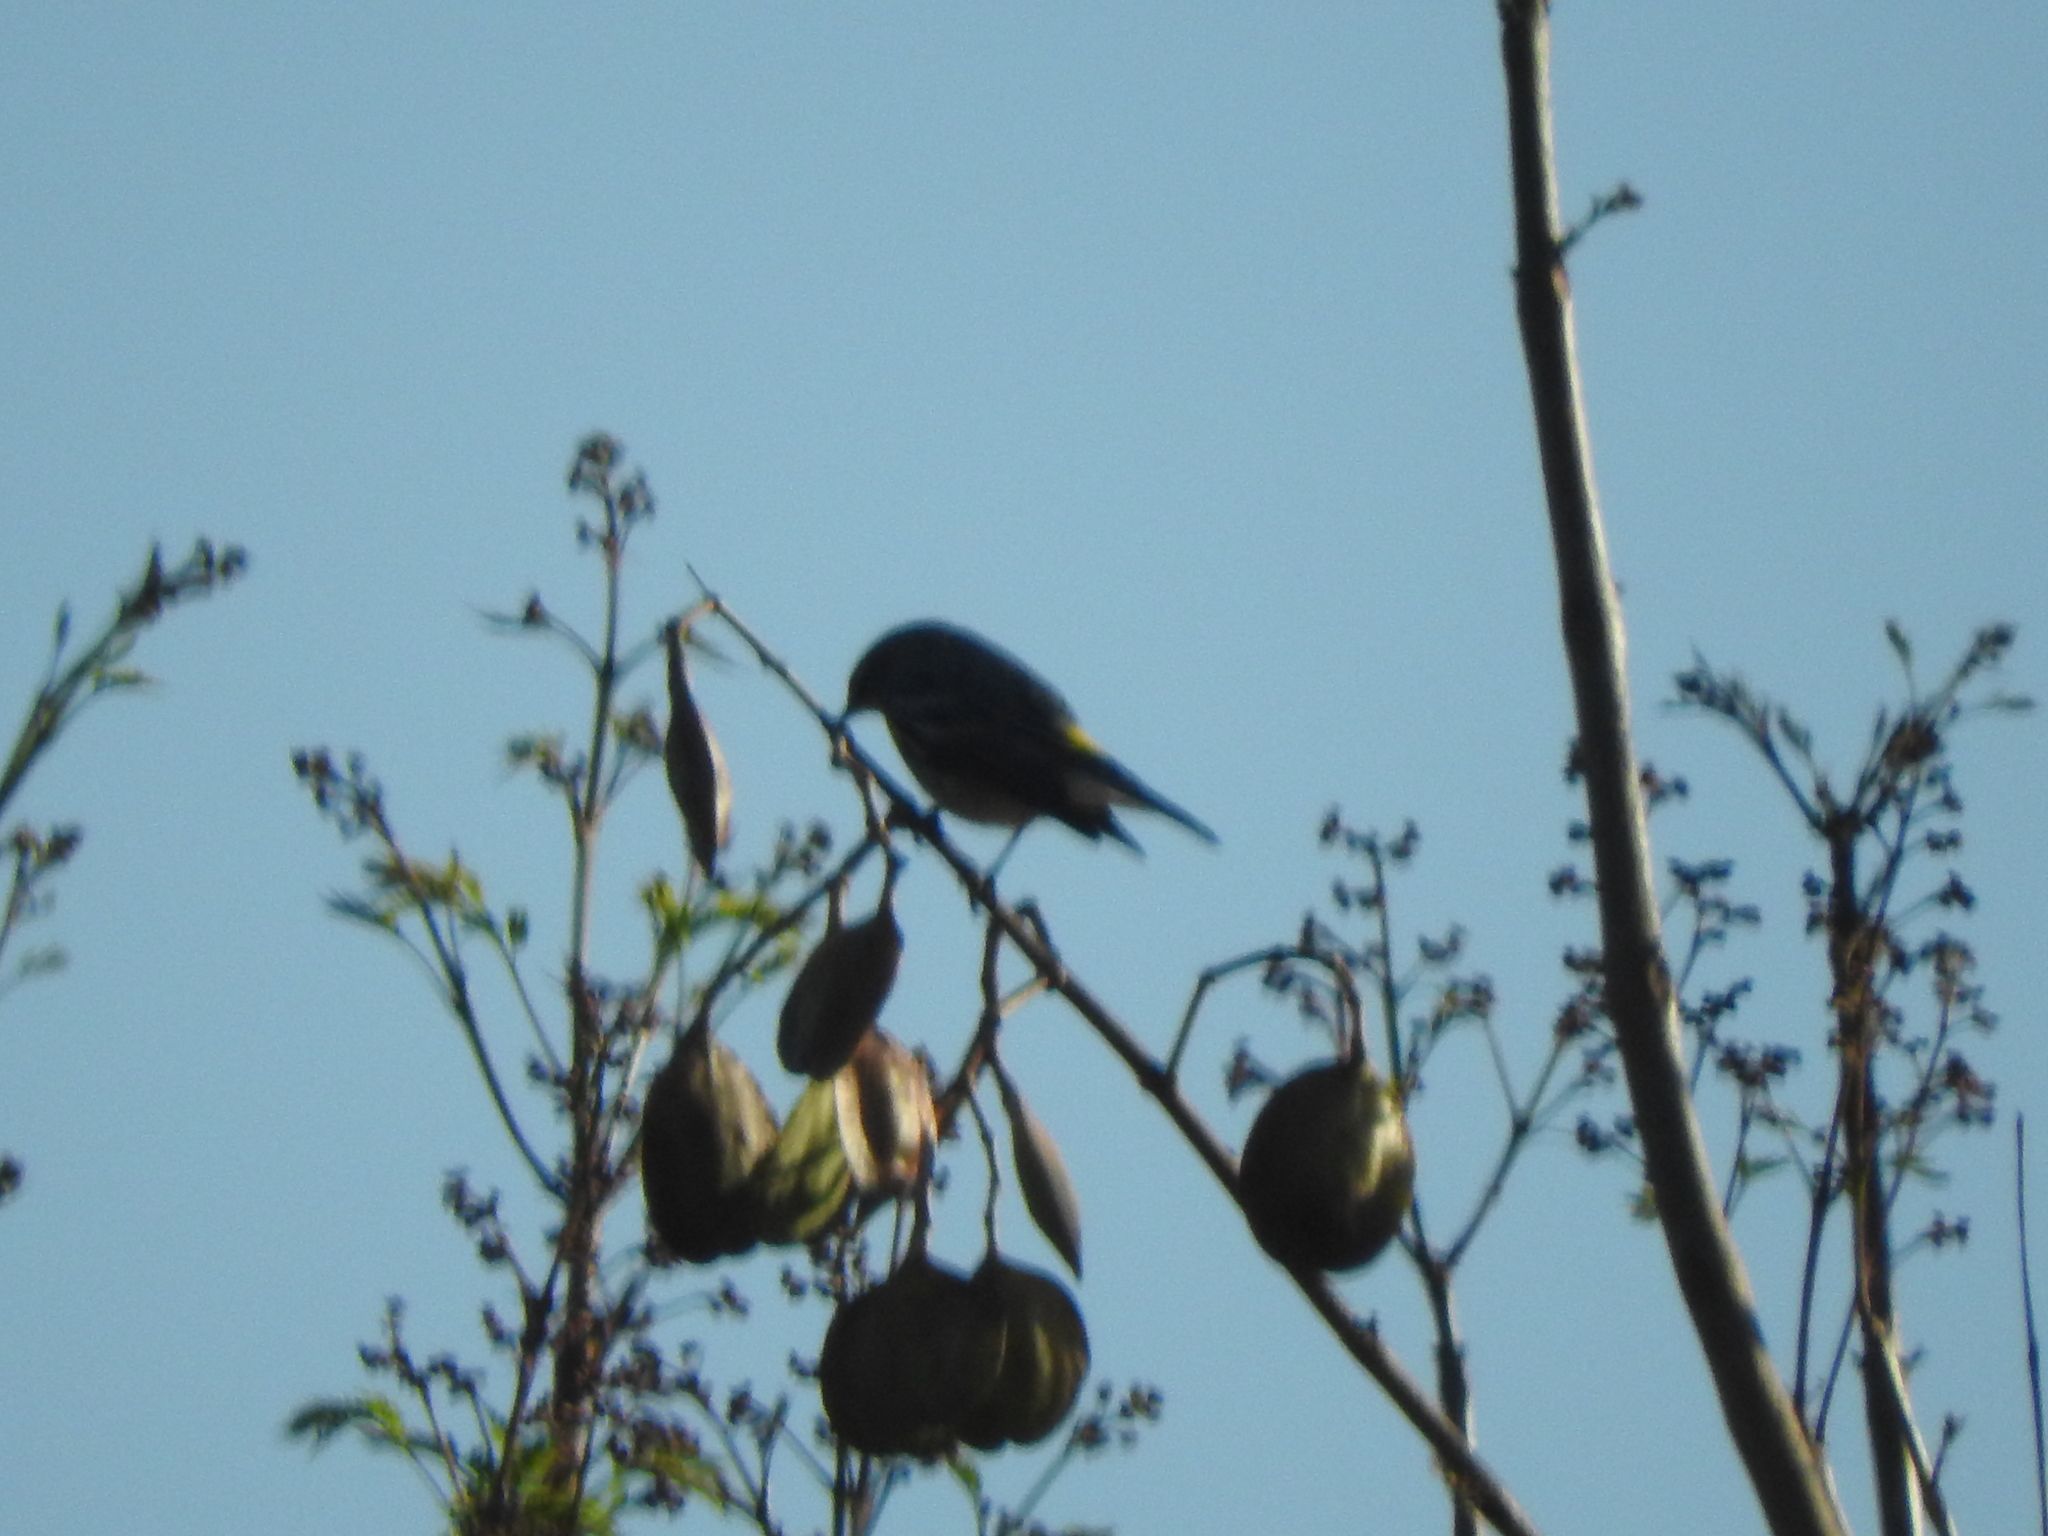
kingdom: Animalia
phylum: Chordata
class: Aves
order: Passeriformes
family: Parulidae
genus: Setophaga
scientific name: Setophaga coronata
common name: Myrtle warbler
